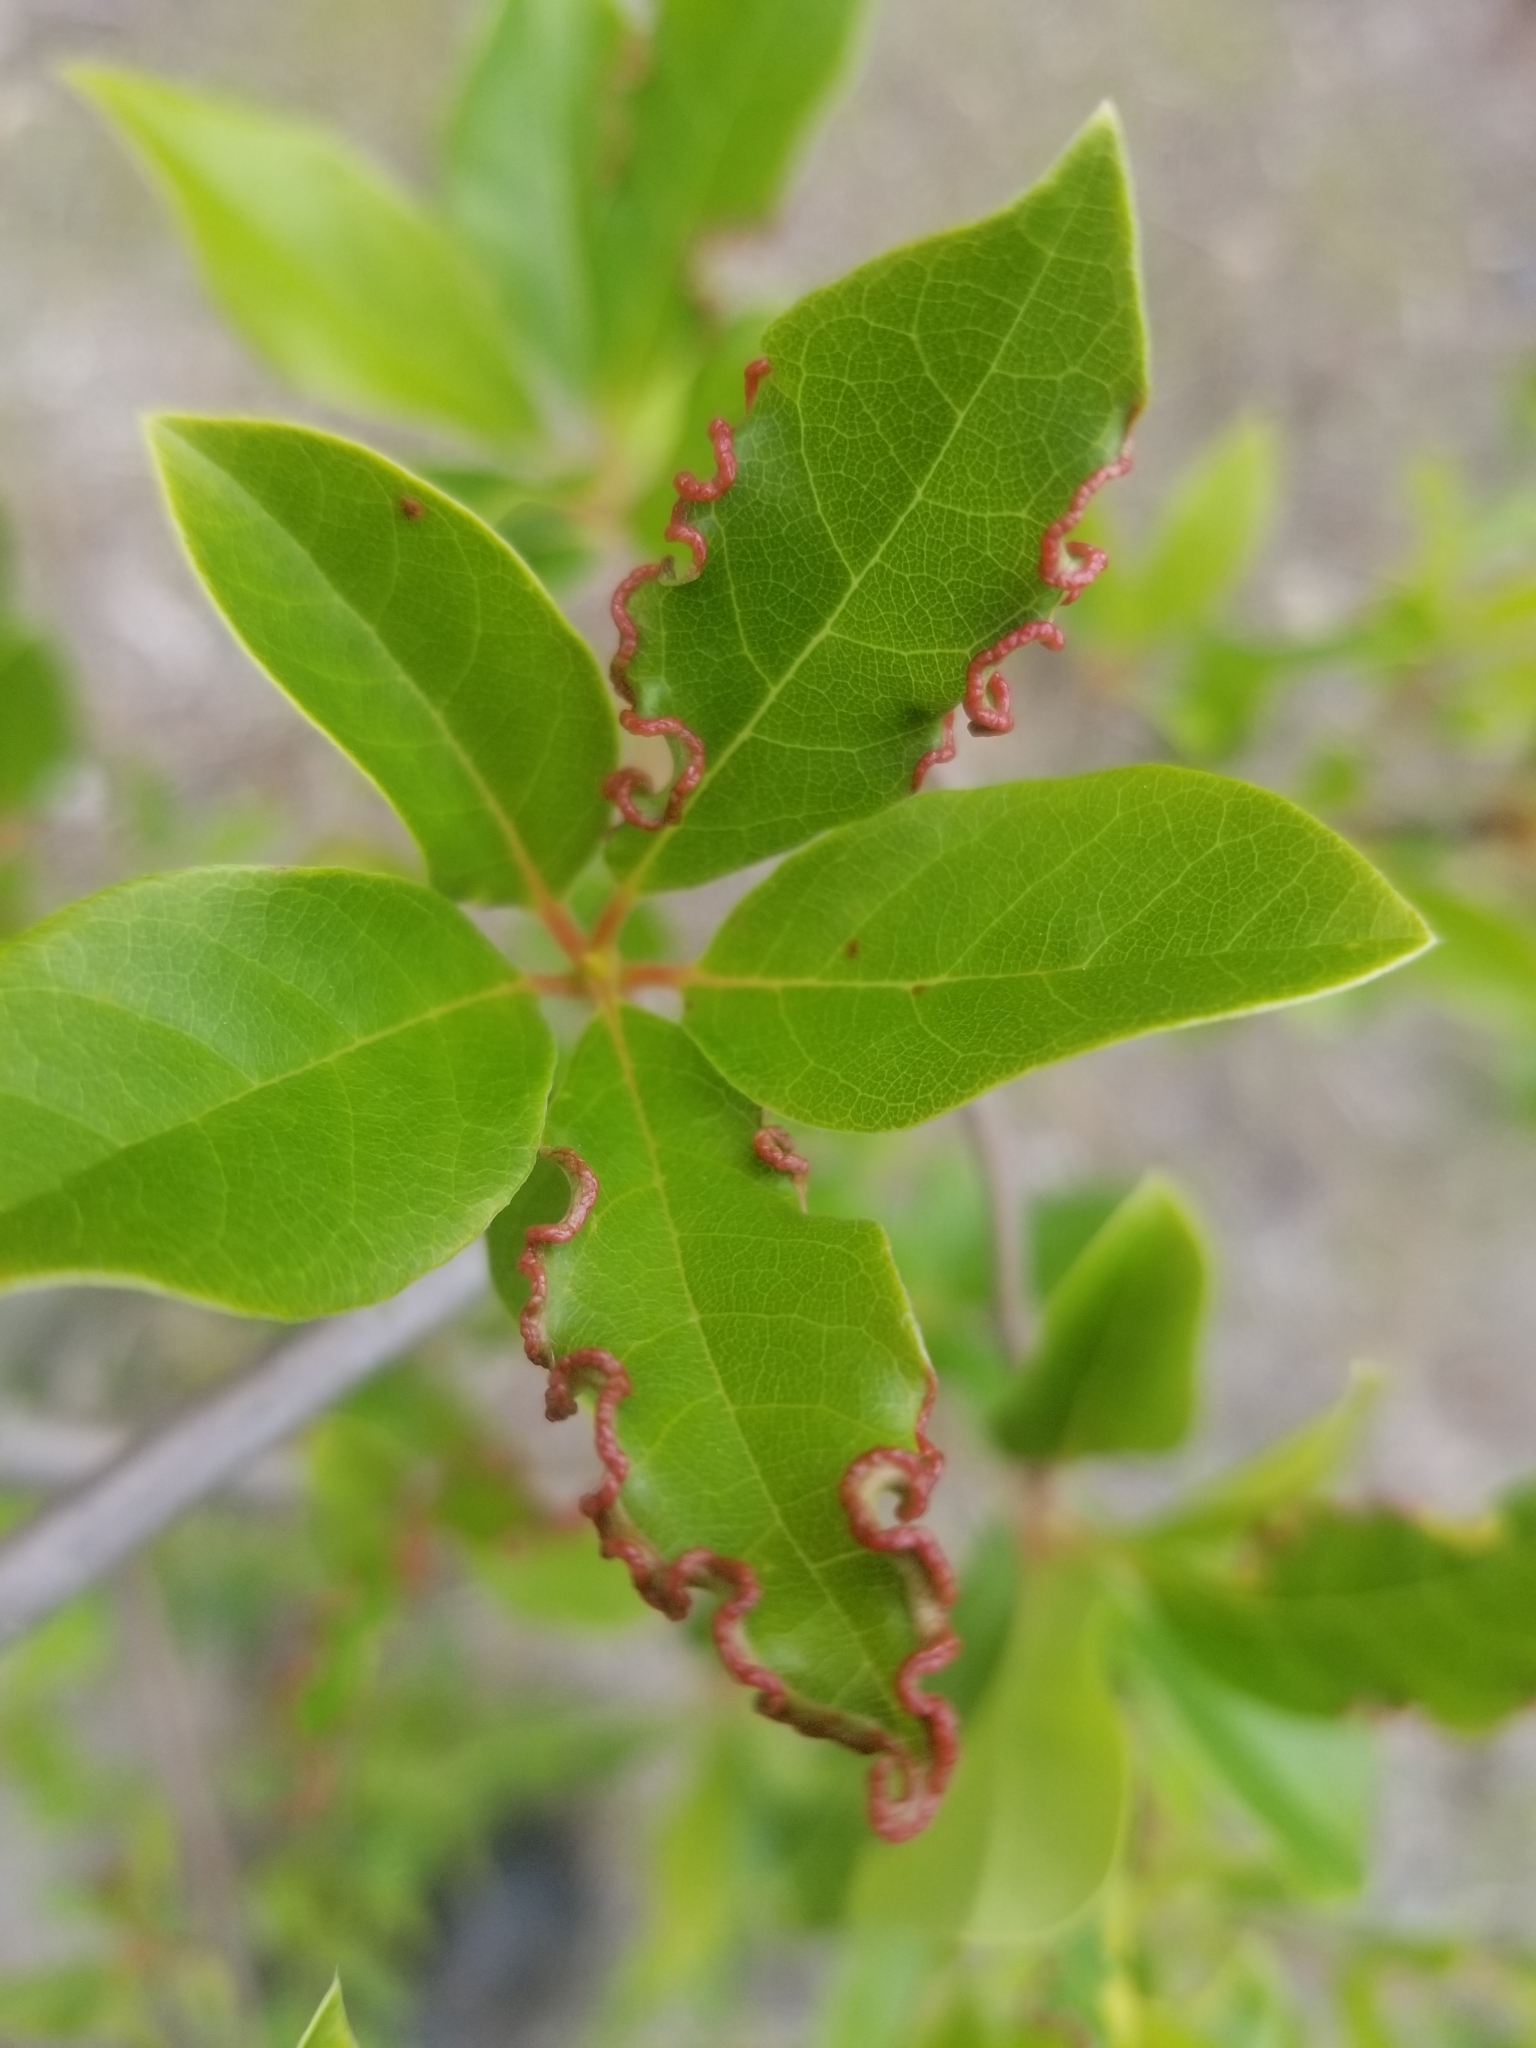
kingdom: Animalia
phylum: Arthropoda
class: Arachnida
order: Trombidiformes
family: Eriophyidae
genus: Aceria
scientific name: Aceria
